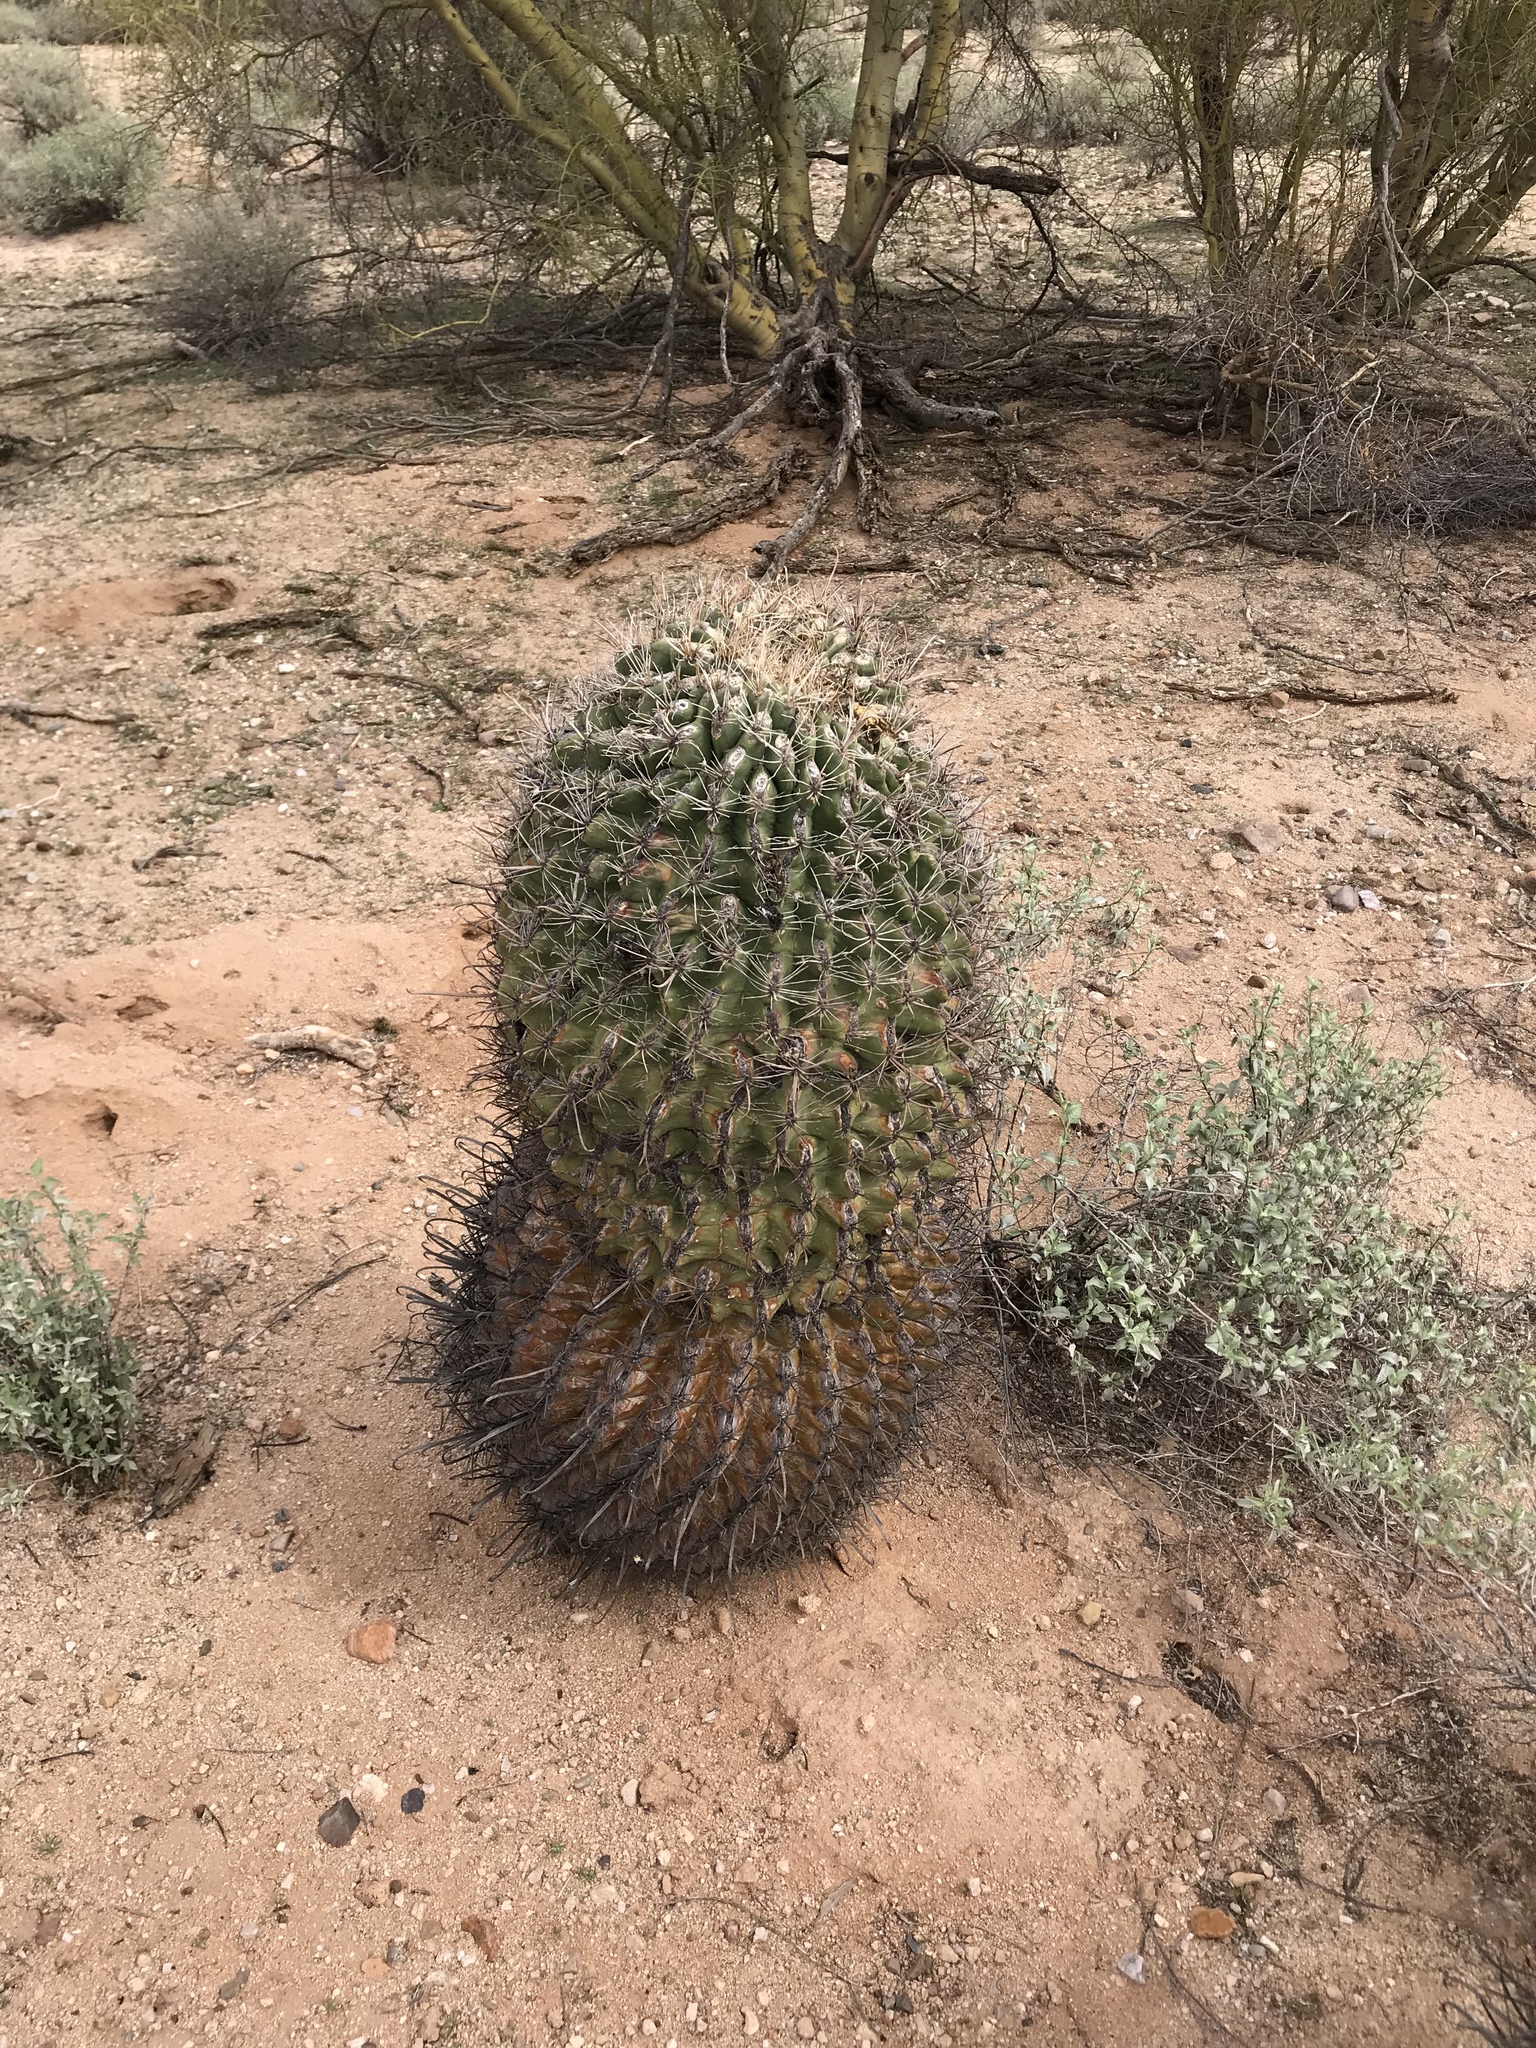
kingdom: Plantae
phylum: Tracheophyta
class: Magnoliopsida
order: Caryophyllales
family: Cactaceae
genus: Ferocactus
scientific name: Ferocactus wislizeni
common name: Candy barrel cactus
